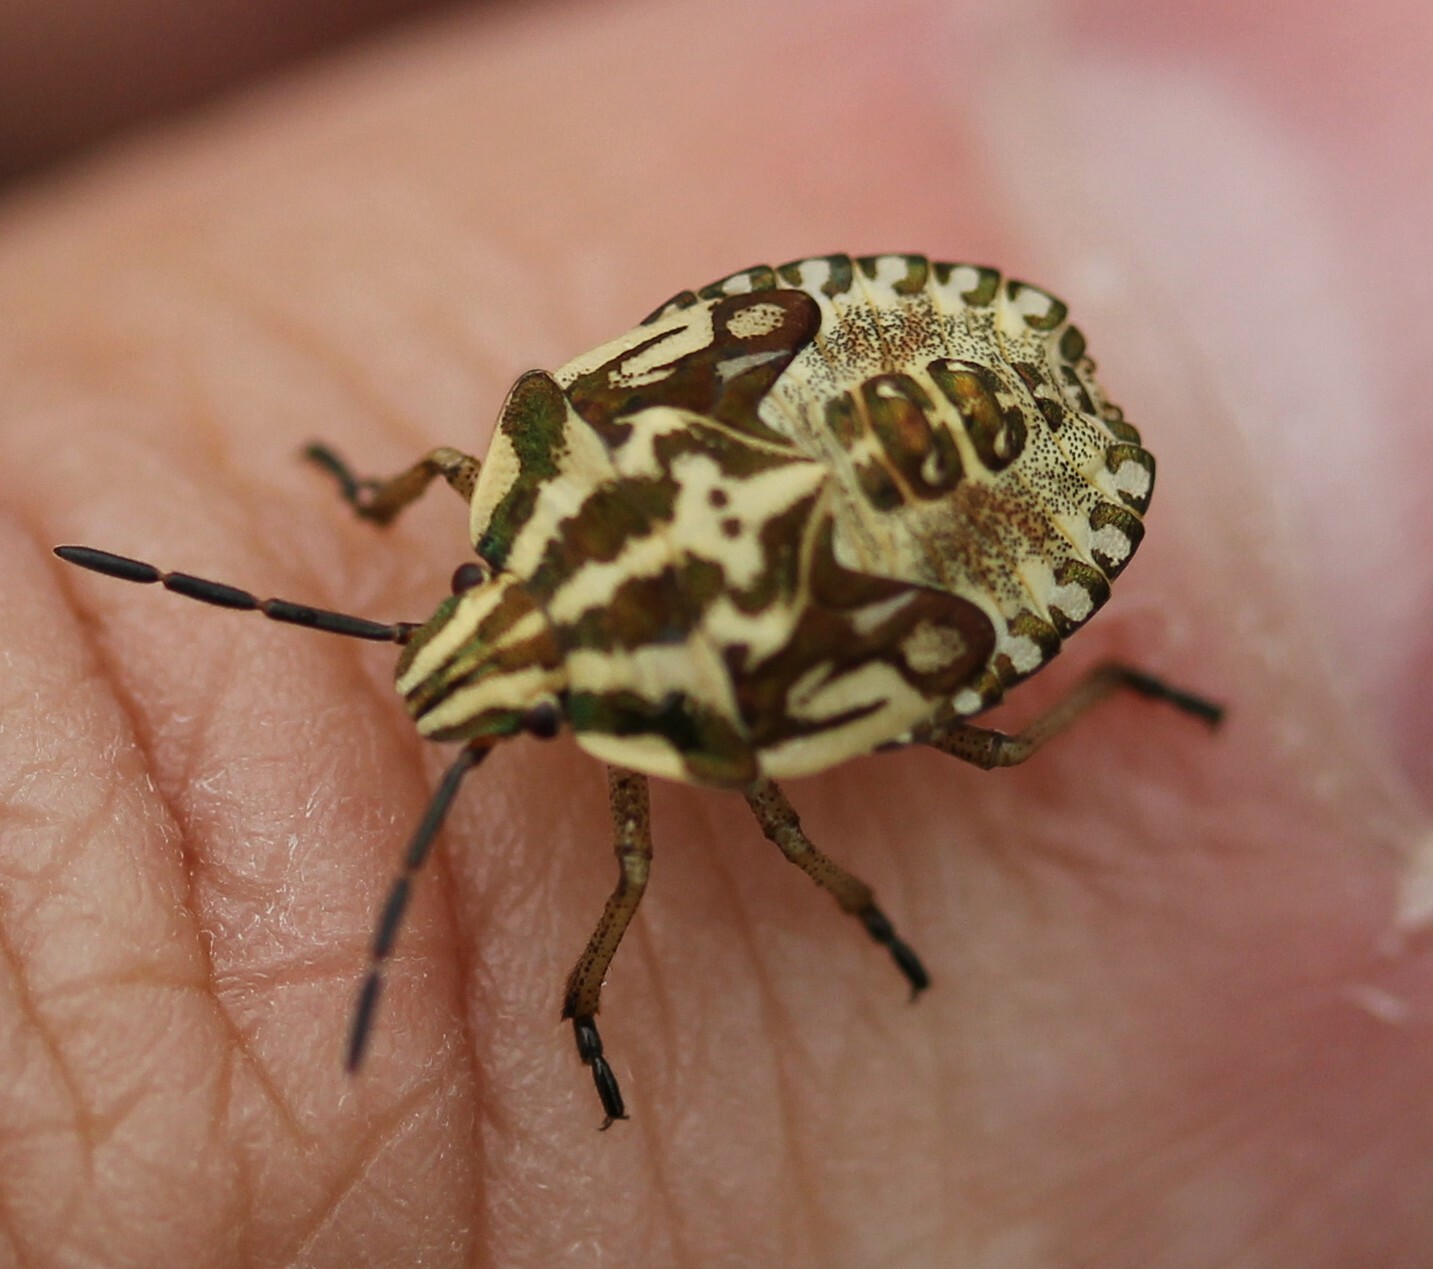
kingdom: Animalia
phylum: Arthropoda
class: Insecta
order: Hemiptera
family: Pentatomidae
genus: Carpocoris
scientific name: Carpocoris purpureipennis
